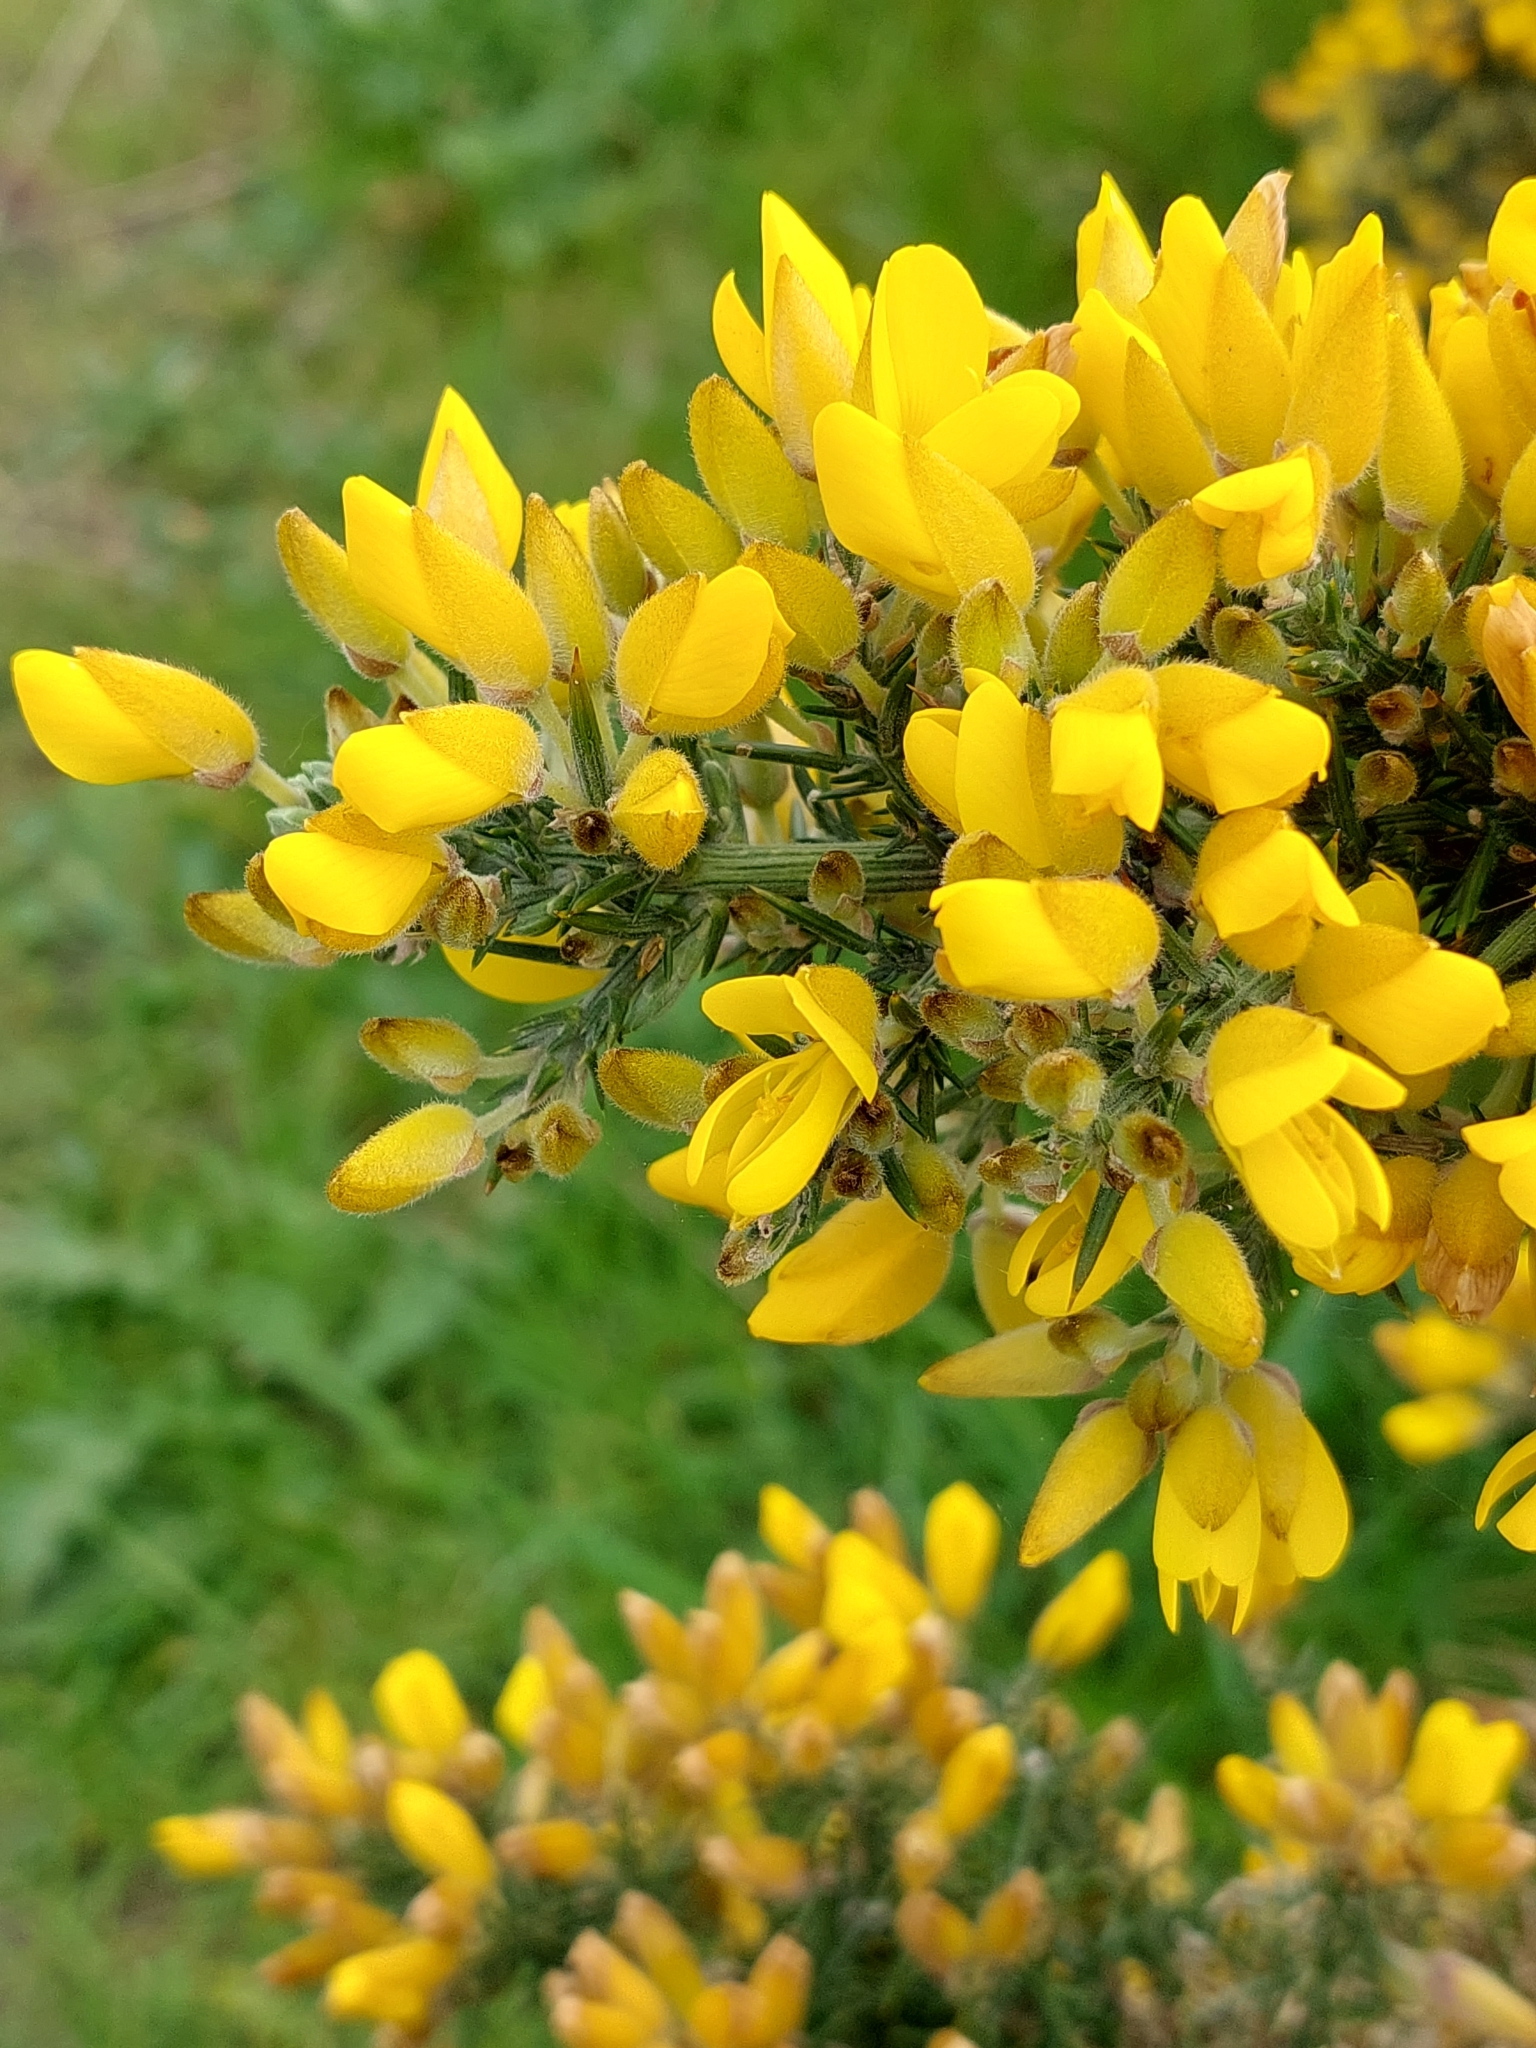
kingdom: Plantae
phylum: Tracheophyta
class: Magnoliopsida
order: Fabales
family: Fabaceae
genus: Ulex
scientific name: Ulex europaeus
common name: Common gorse
